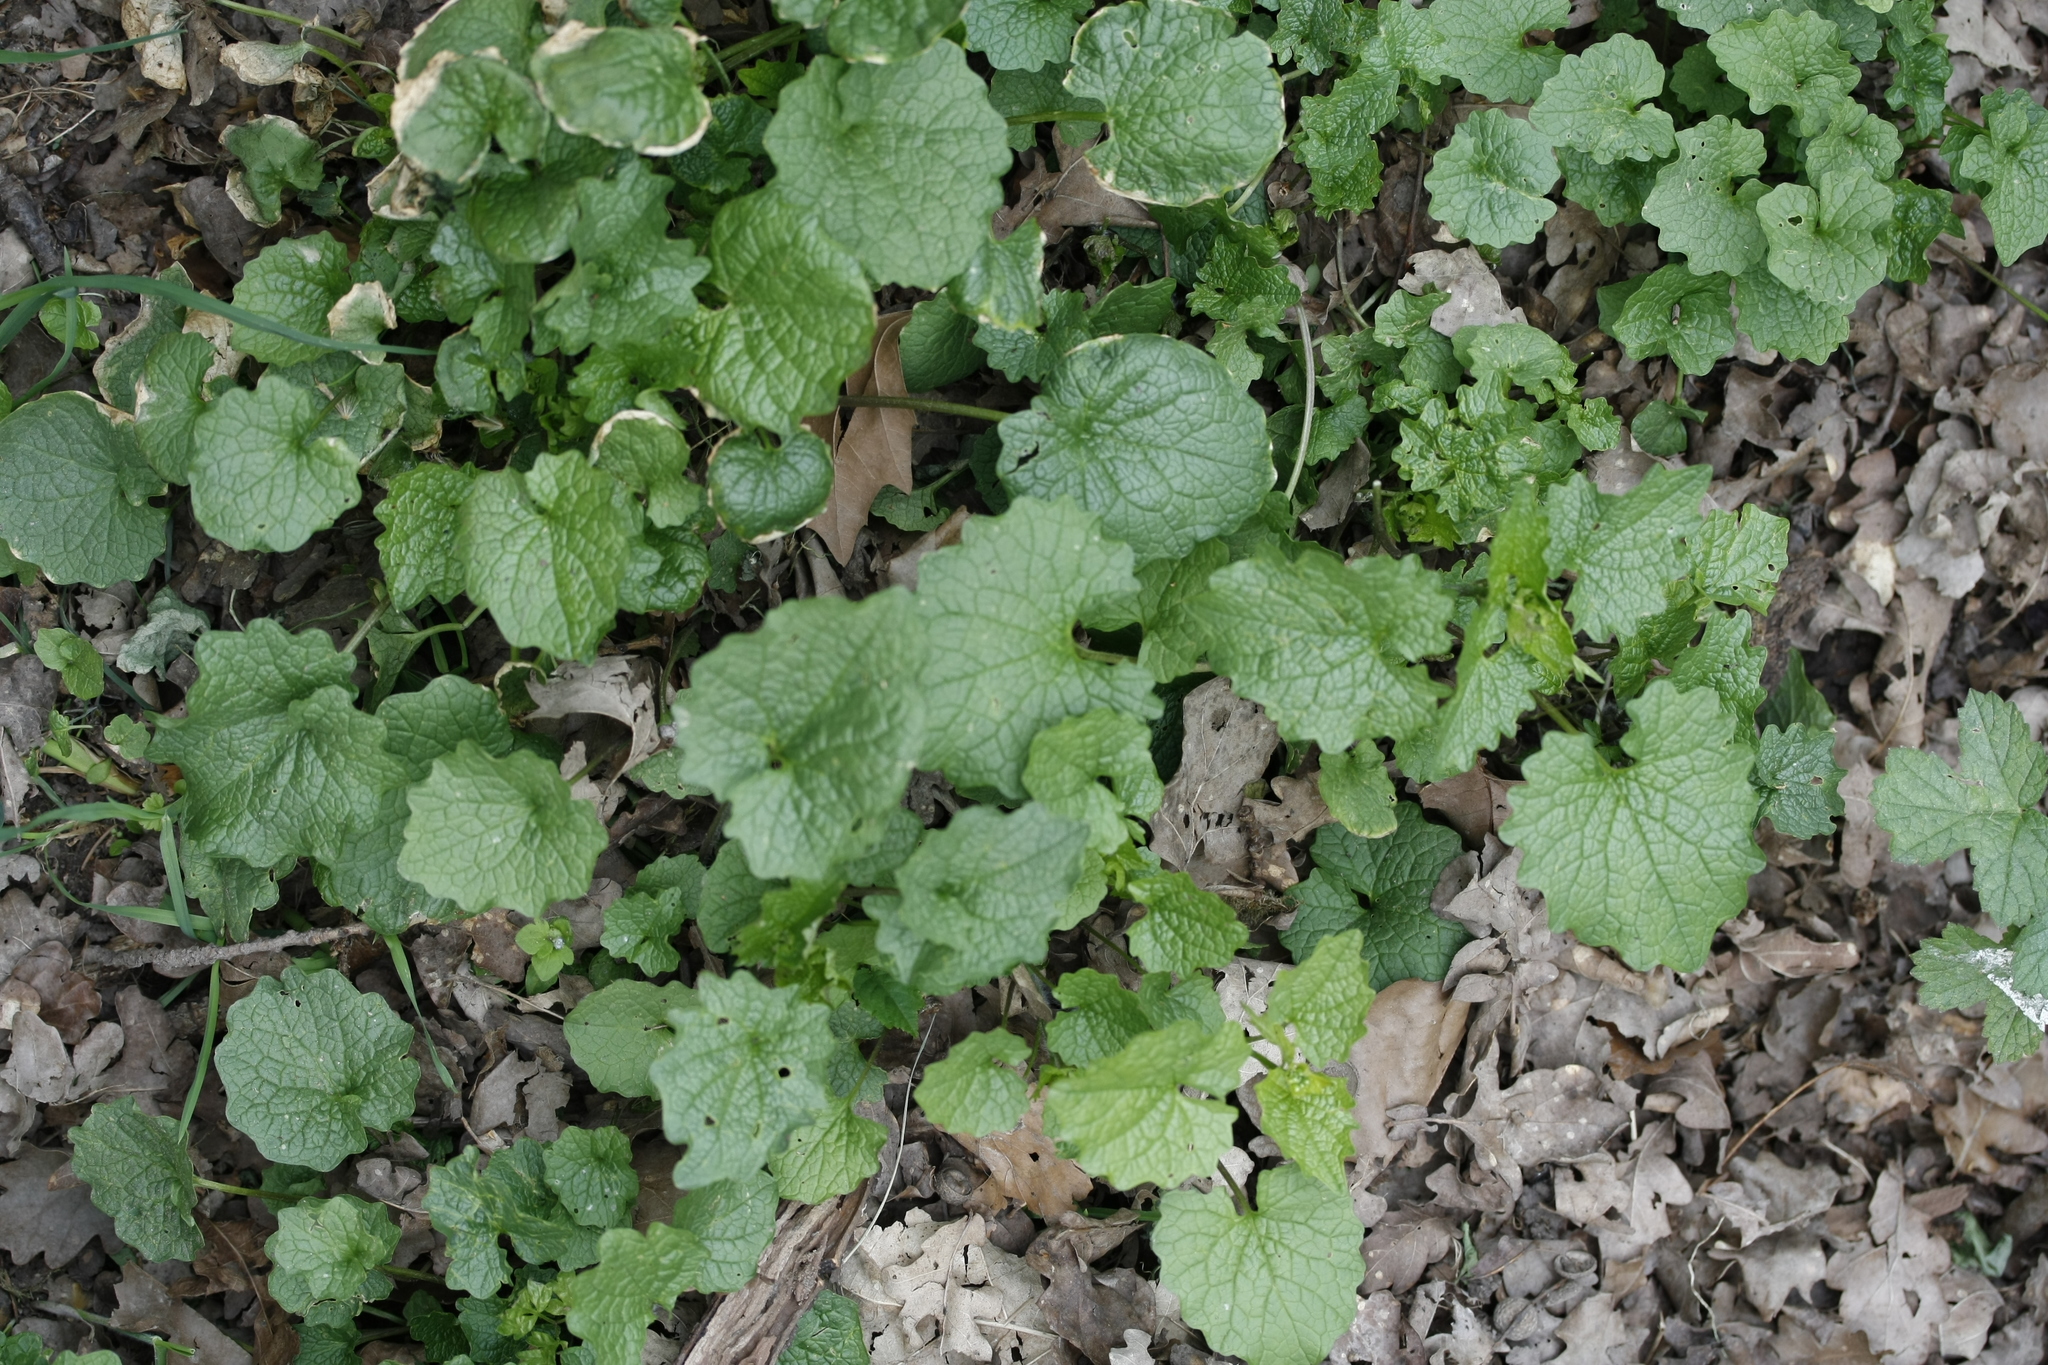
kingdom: Plantae
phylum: Tracheophyta
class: Magnoliopsida
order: Brassicales
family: Brassicaceae
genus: Alliaria
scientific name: Alliaria petiolata
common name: Garlic mustard
